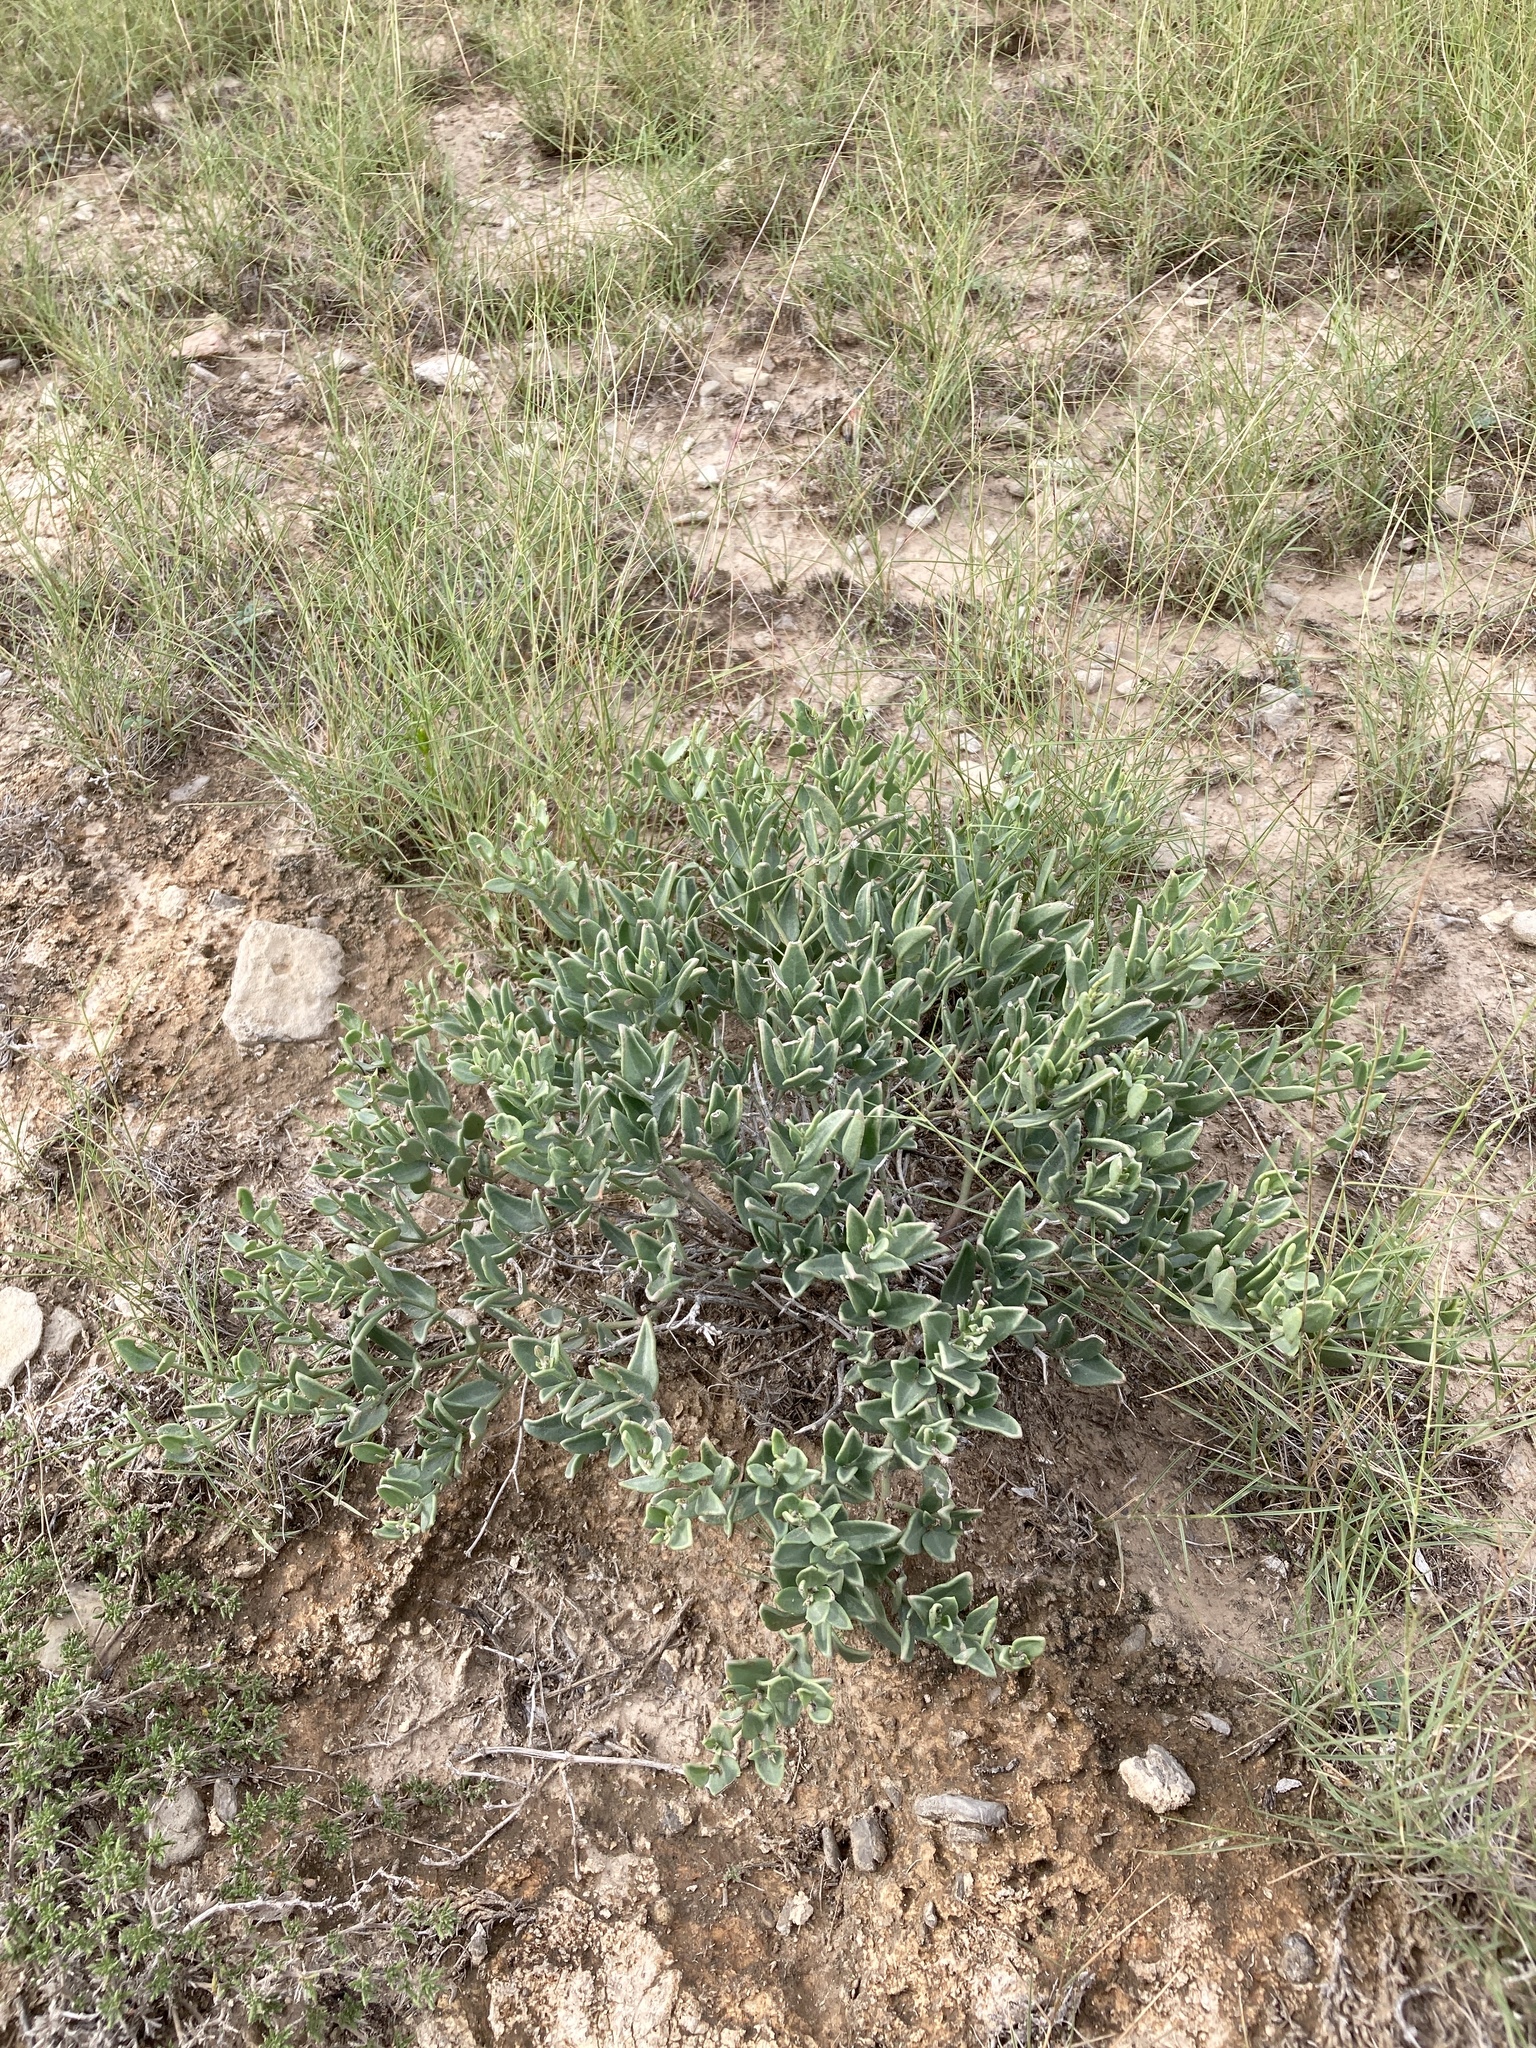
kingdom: Plantae
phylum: Tracheophyta
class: Magnoliopsida
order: Caryophyllales
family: Nyctaginaceae
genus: Acleisanthes
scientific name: Acleisanthes lanceolata
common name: Gypsum moonpod
